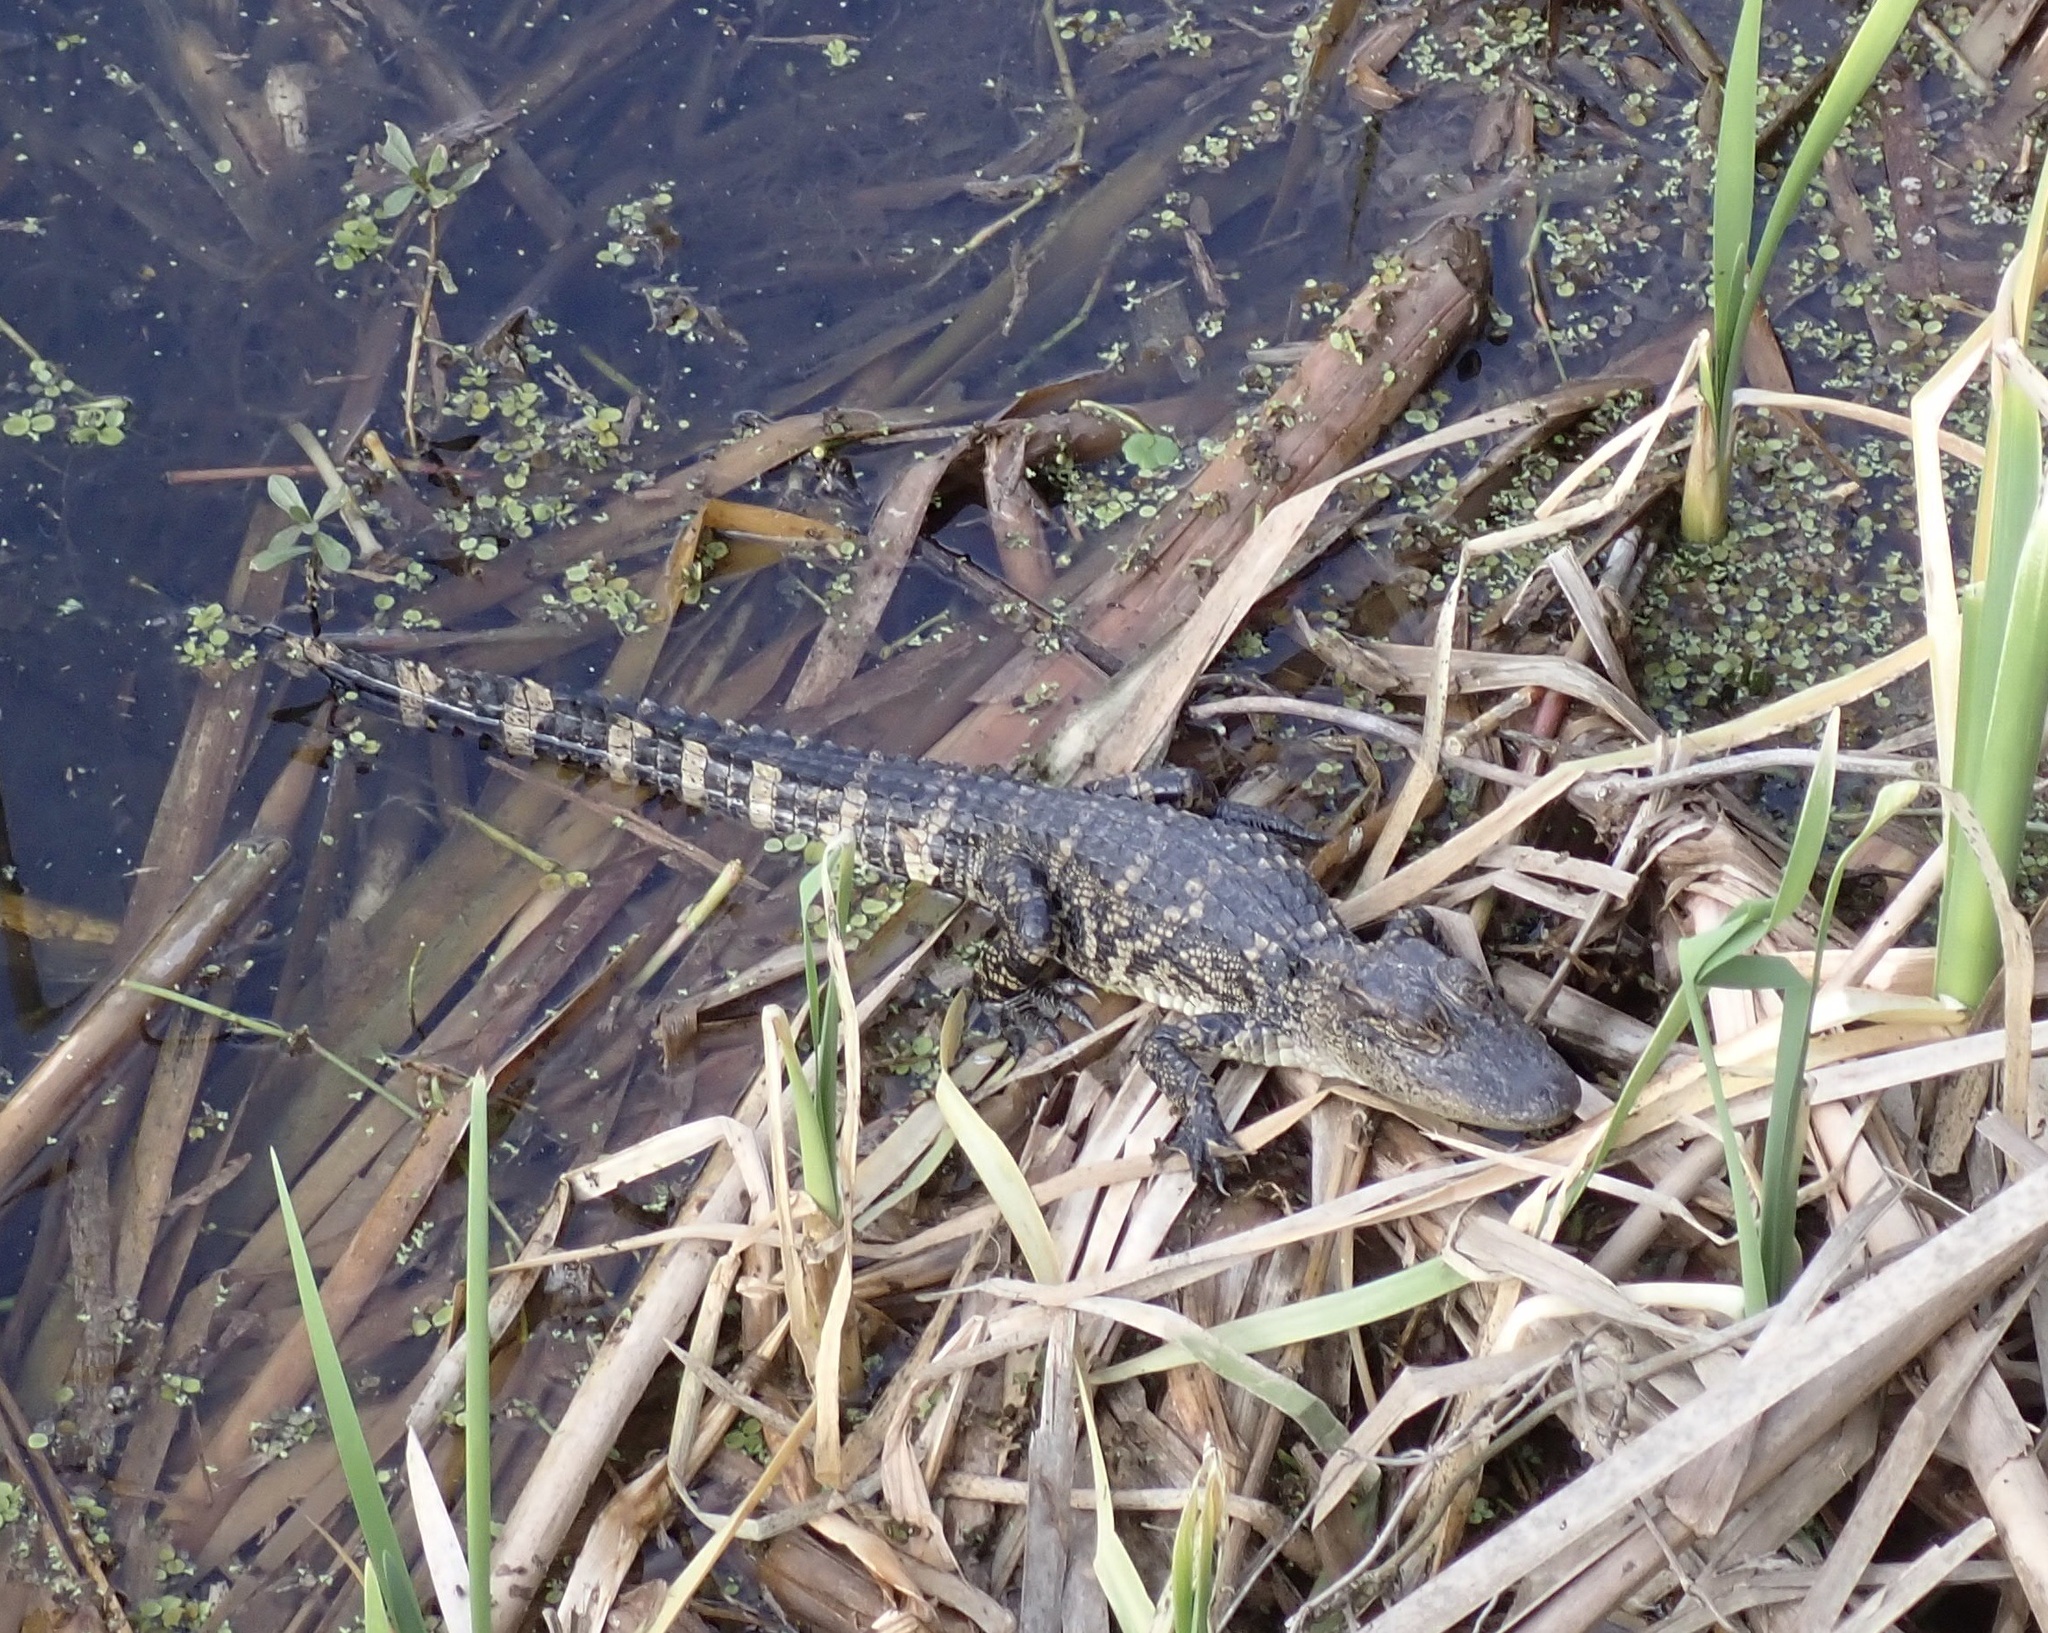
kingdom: Animalia
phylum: Chordata
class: Crocodylia
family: Alligatoridae
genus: Alligator
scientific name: Alligator mississippiensis
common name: American alligator
